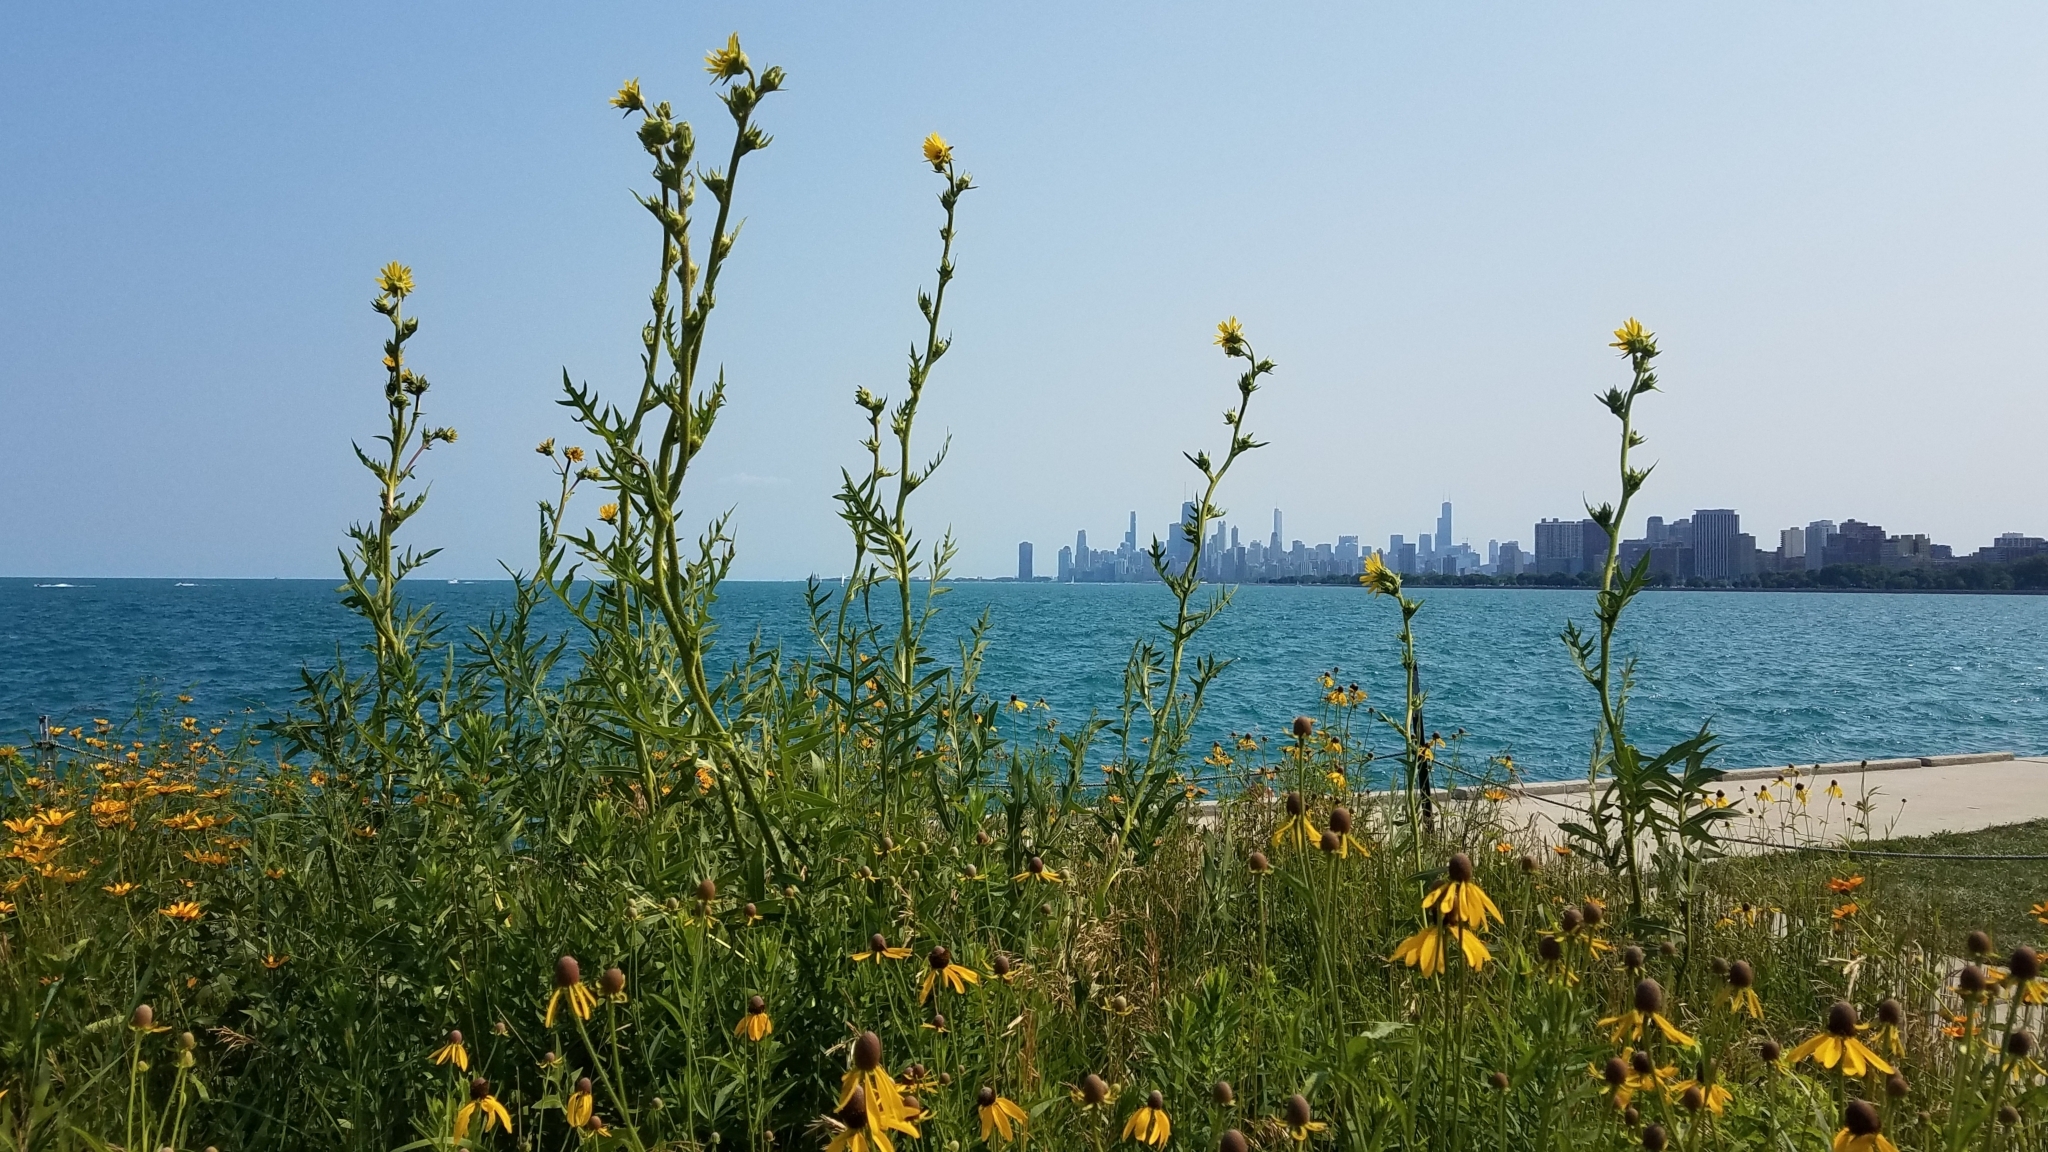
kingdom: Plantae
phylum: Tracheophyta
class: Magnoliopsida
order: Asterales
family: Asteraceae
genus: Silphium
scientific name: Silphium laciniatum
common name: Polarplant
